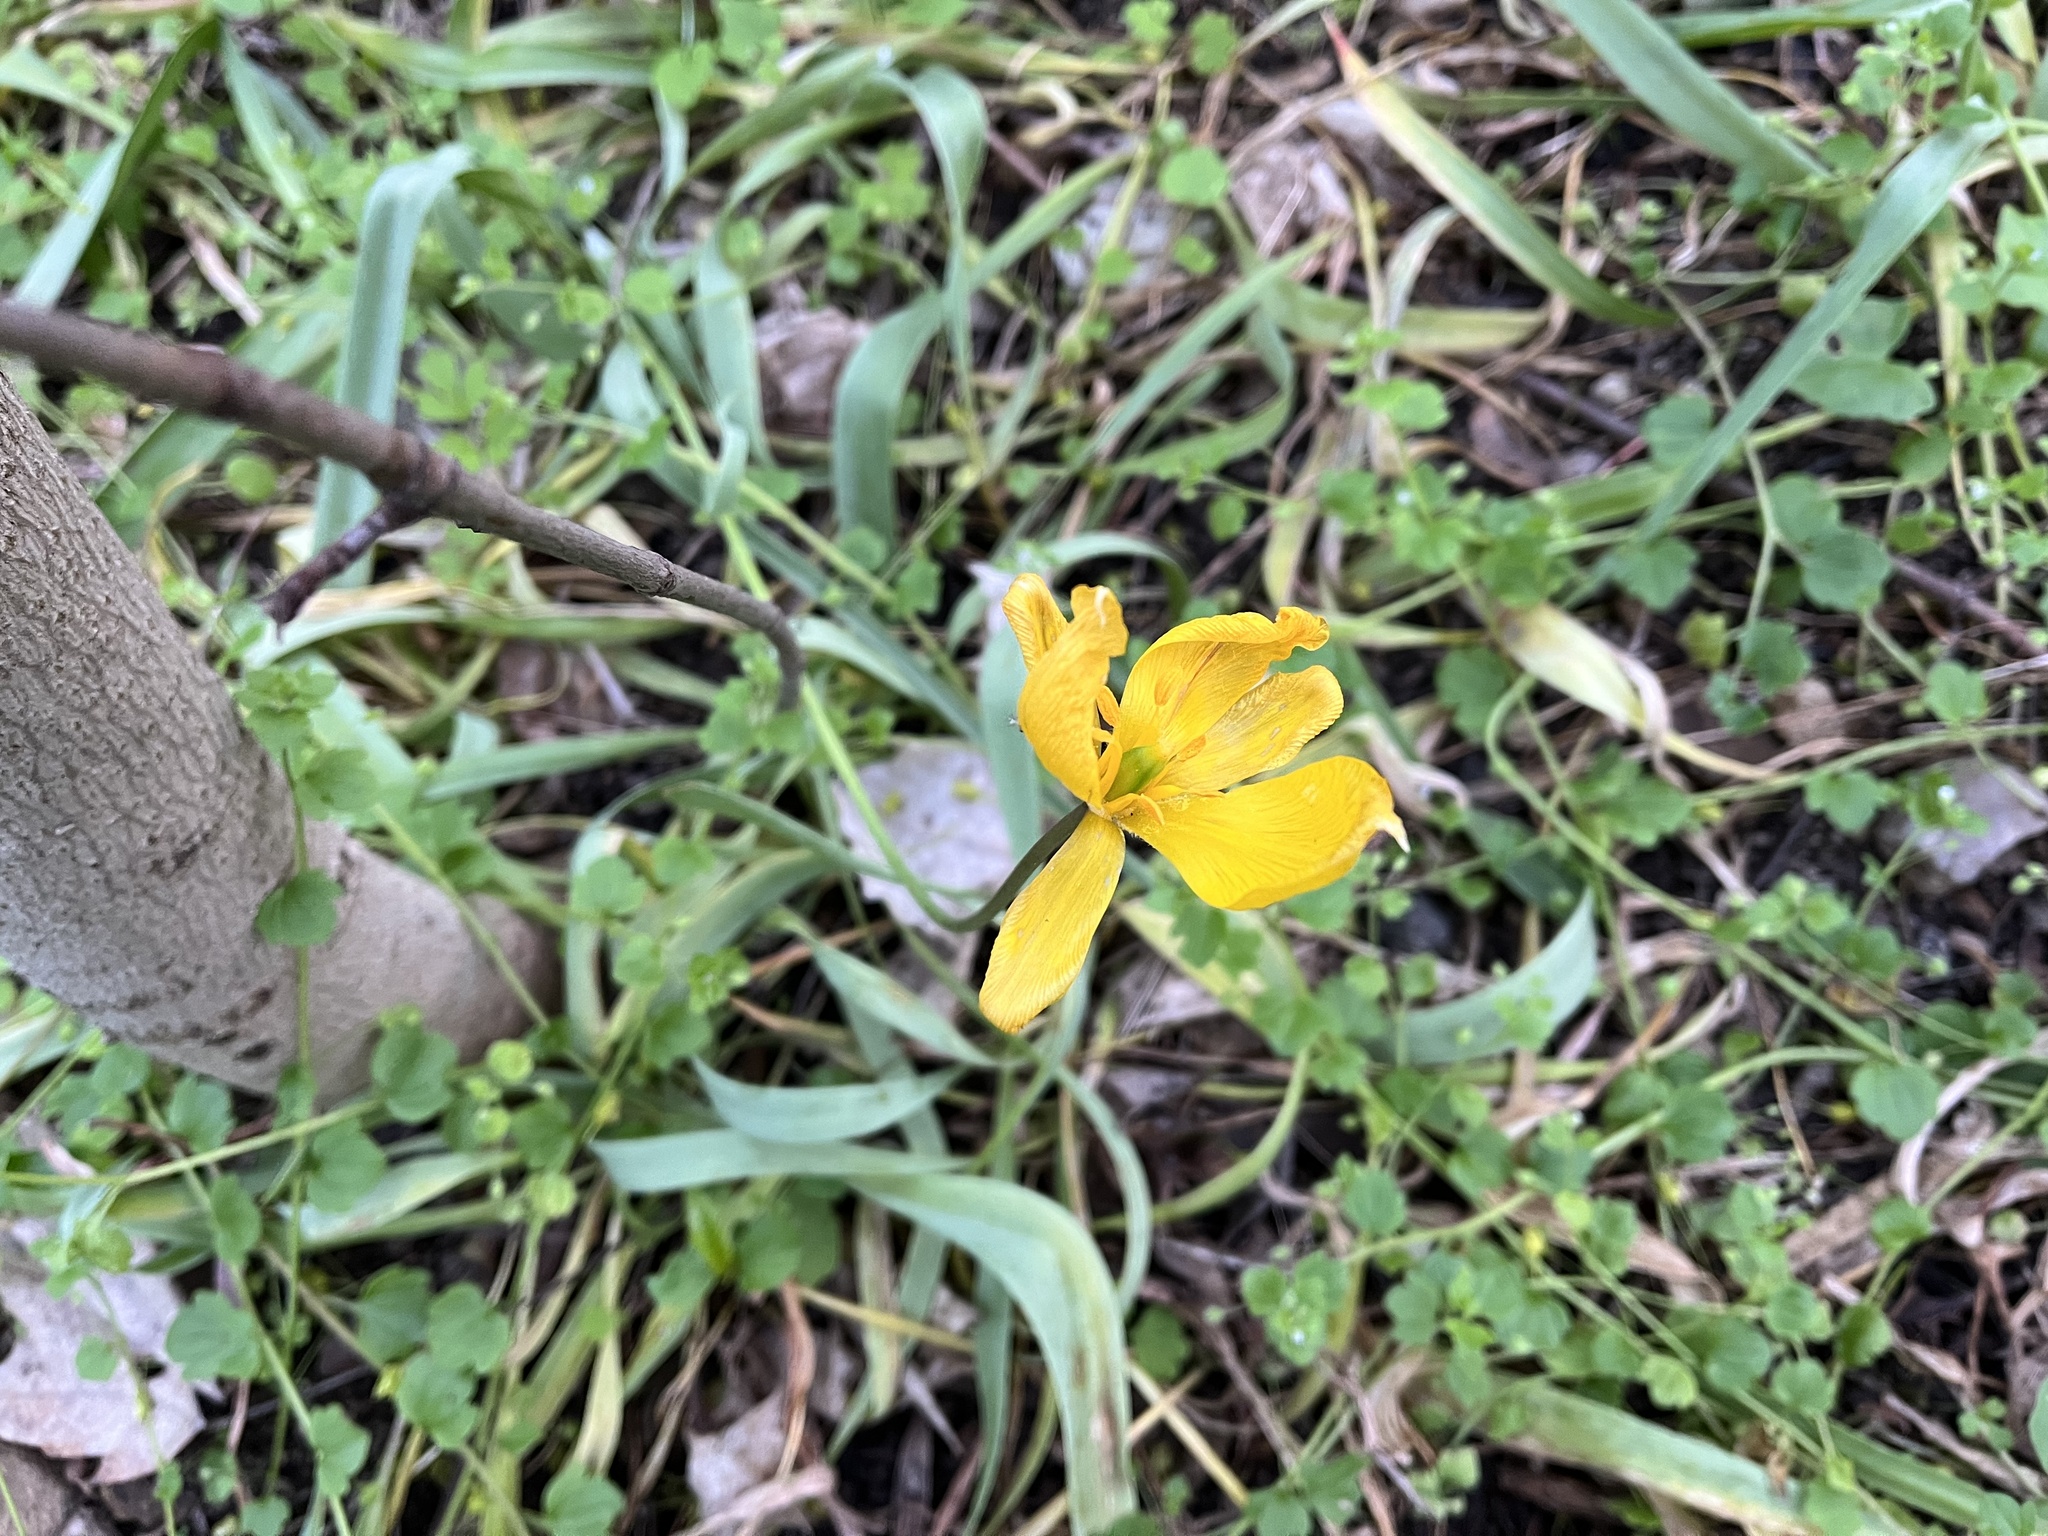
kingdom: Plantae
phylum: Tracheophyta
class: Liliopsida
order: Liliales
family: Liliaceae
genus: Tulipa
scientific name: Tulipa sylvestris
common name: Wild tulip
